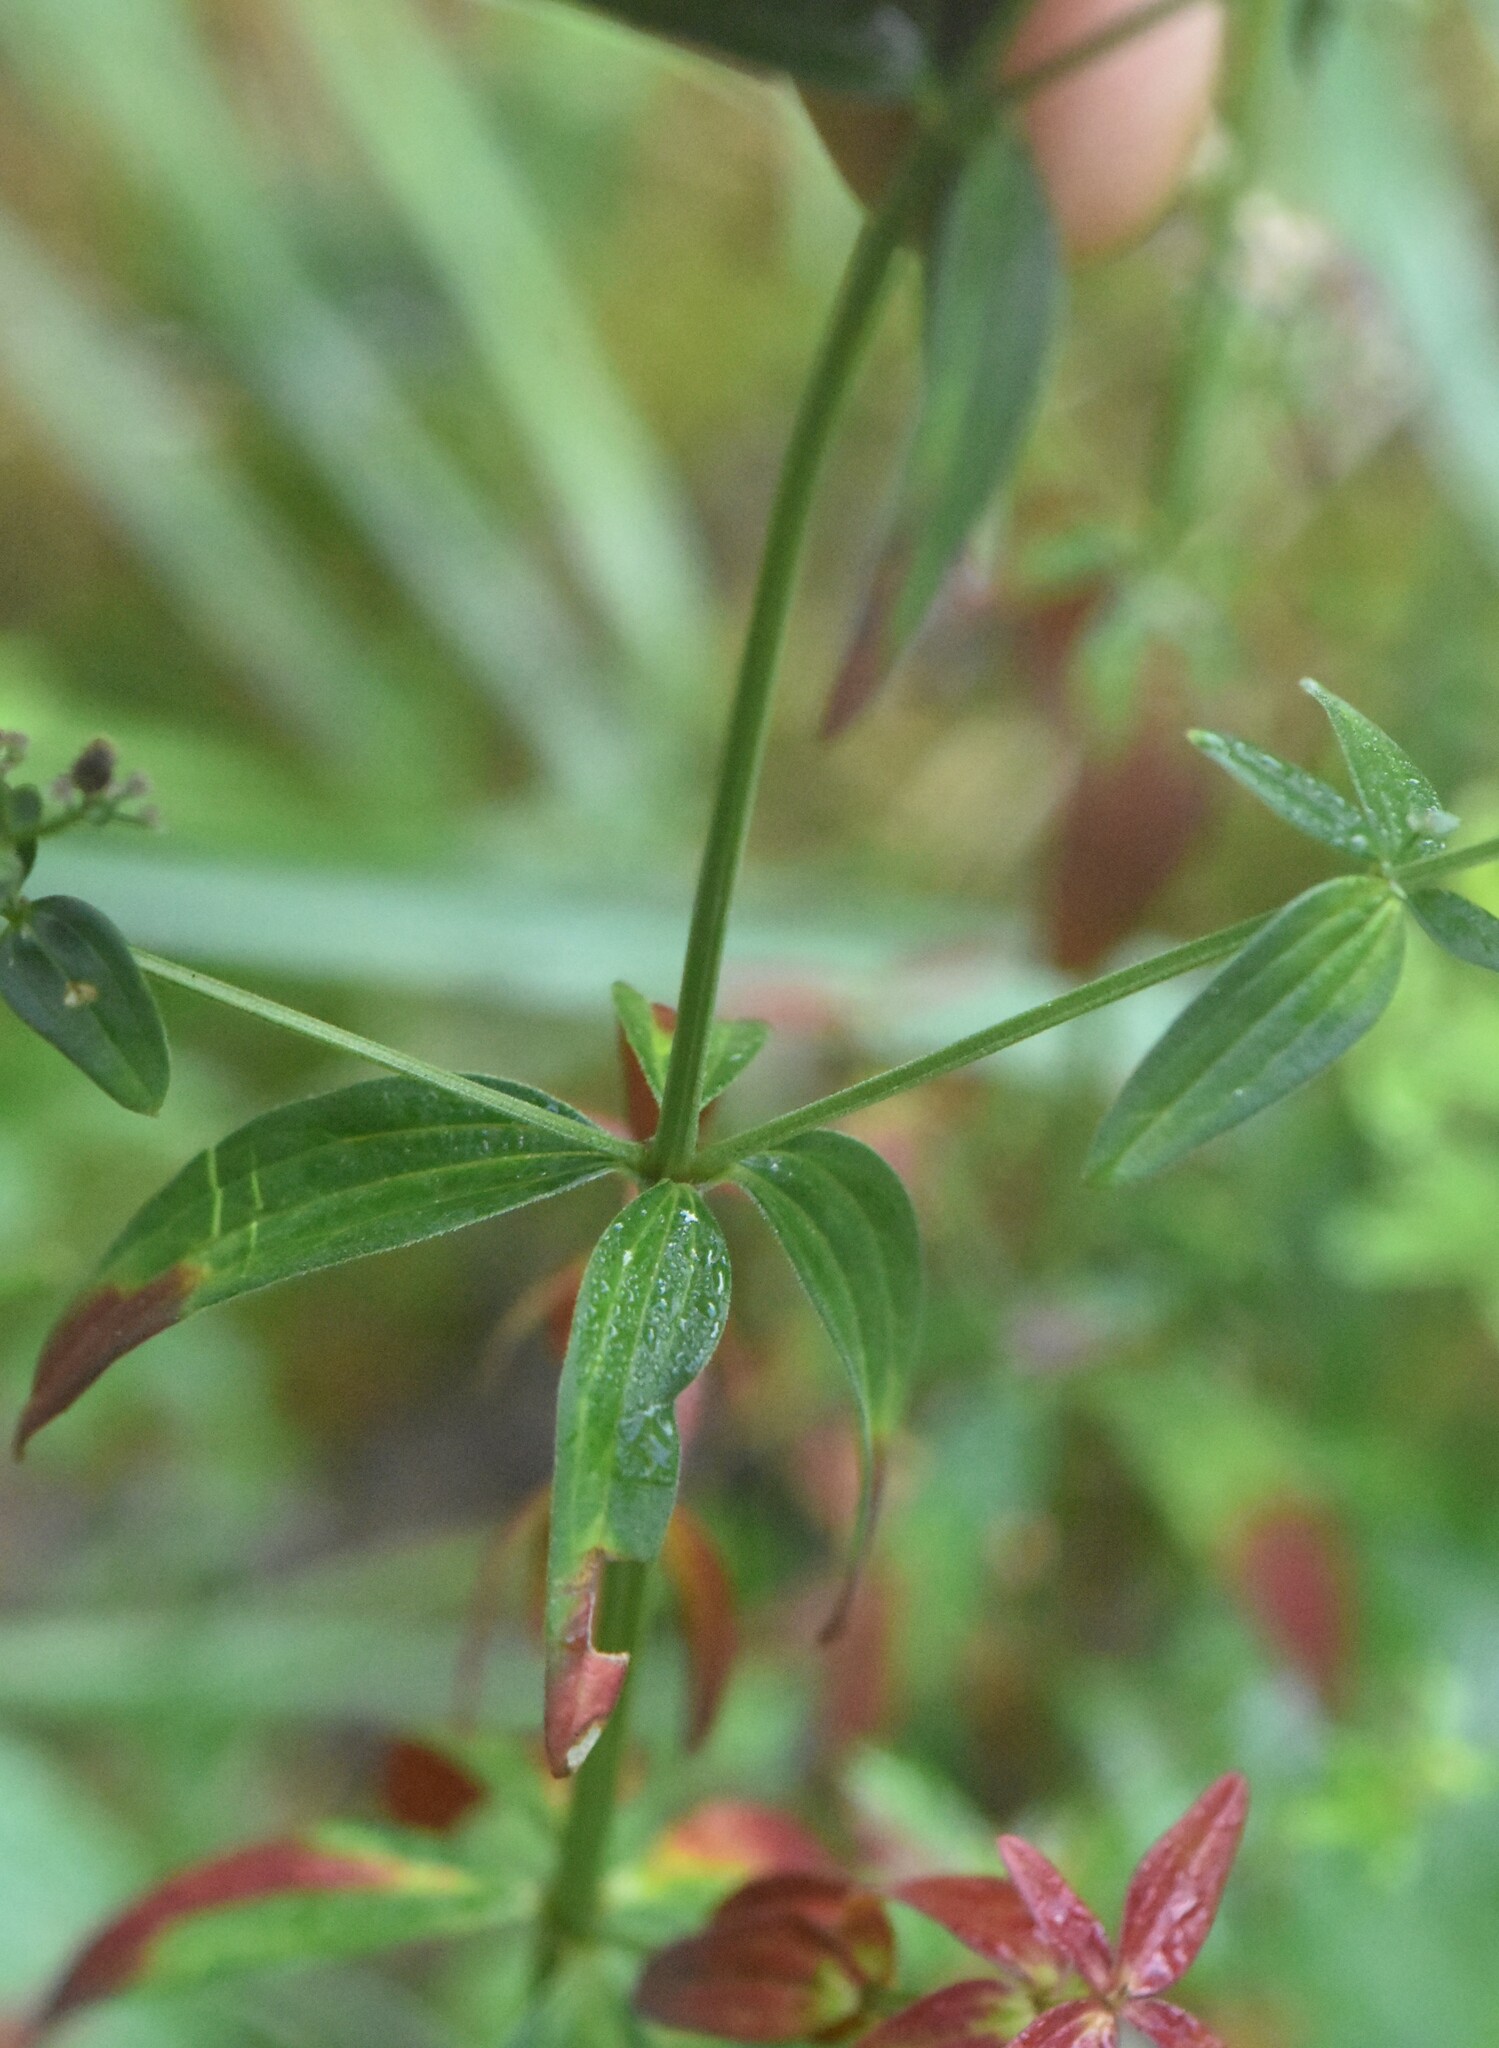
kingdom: Plantae
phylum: Tracheophyta
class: Magnoliopsida
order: Gentianales
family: Rubiaceae
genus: Galium
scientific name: Galium boreale
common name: Northern bedstraw
